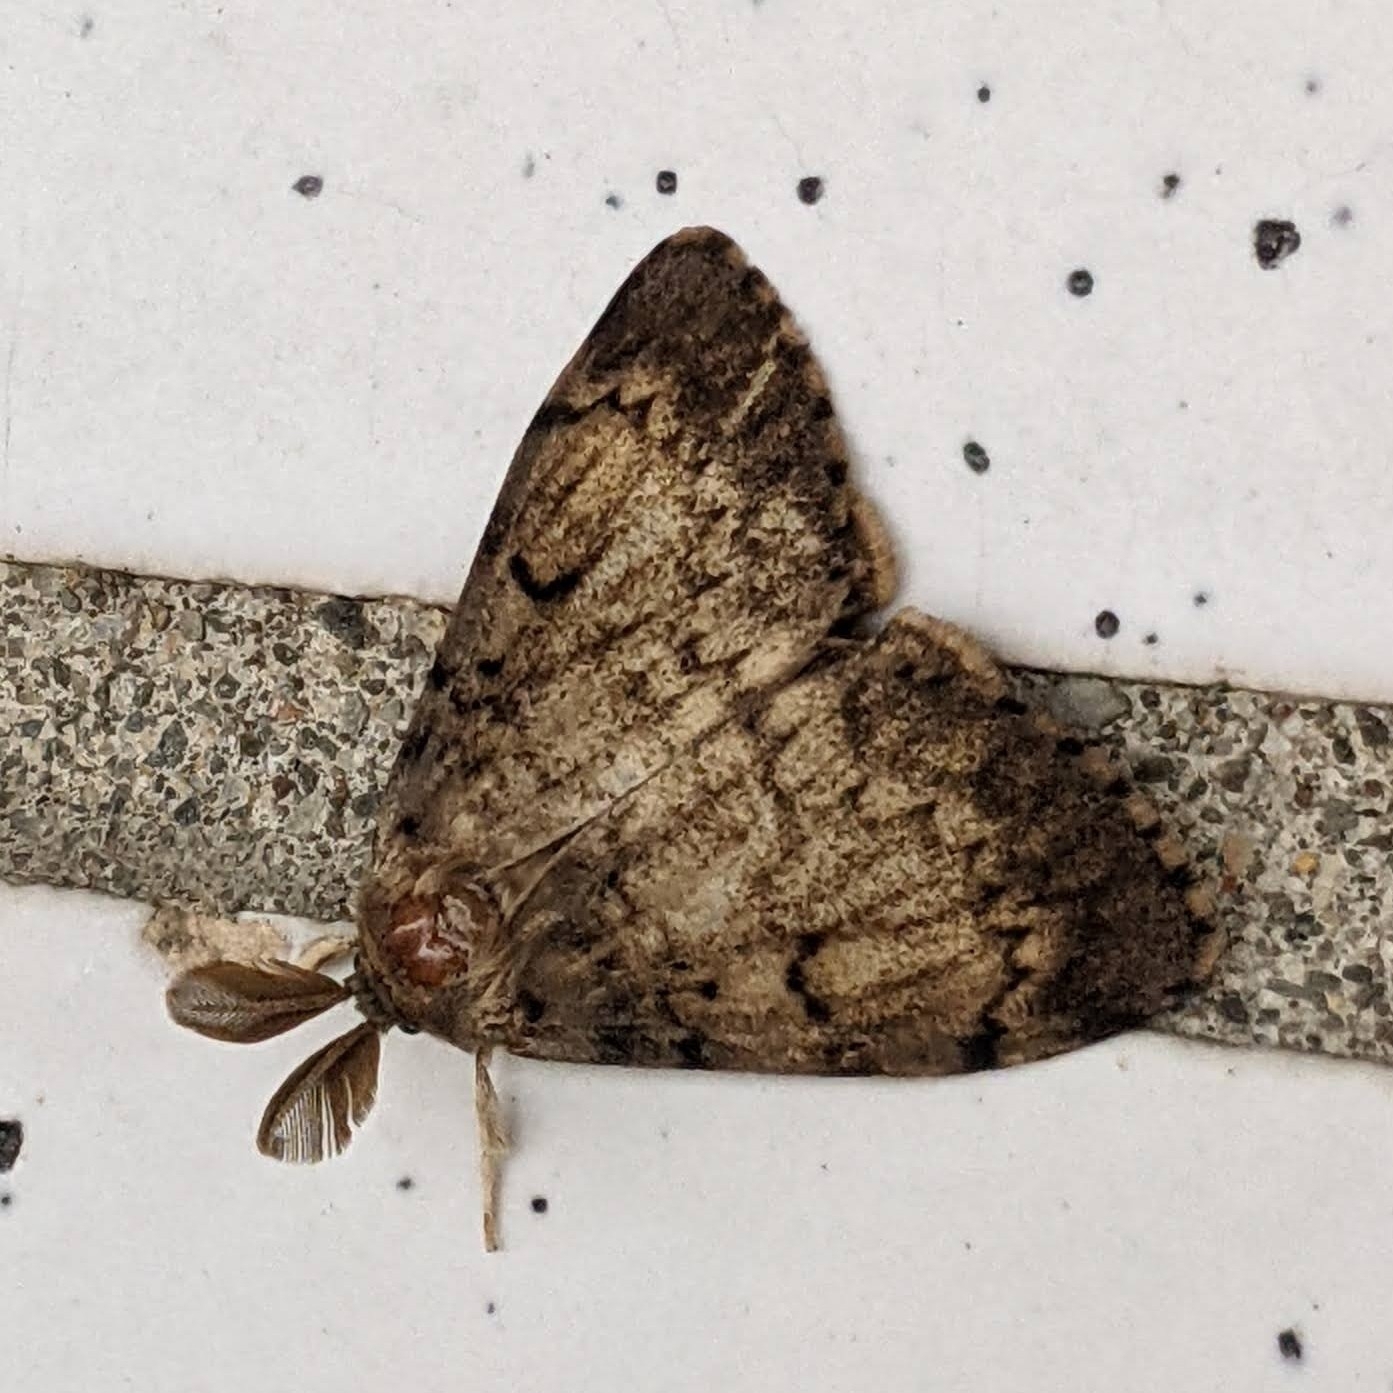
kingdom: Animalia
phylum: Arthropoda
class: Insecta
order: Lepidoptera
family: Erebidae
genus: Lymantria
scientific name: Lymantria dispar
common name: Gypsy moth
